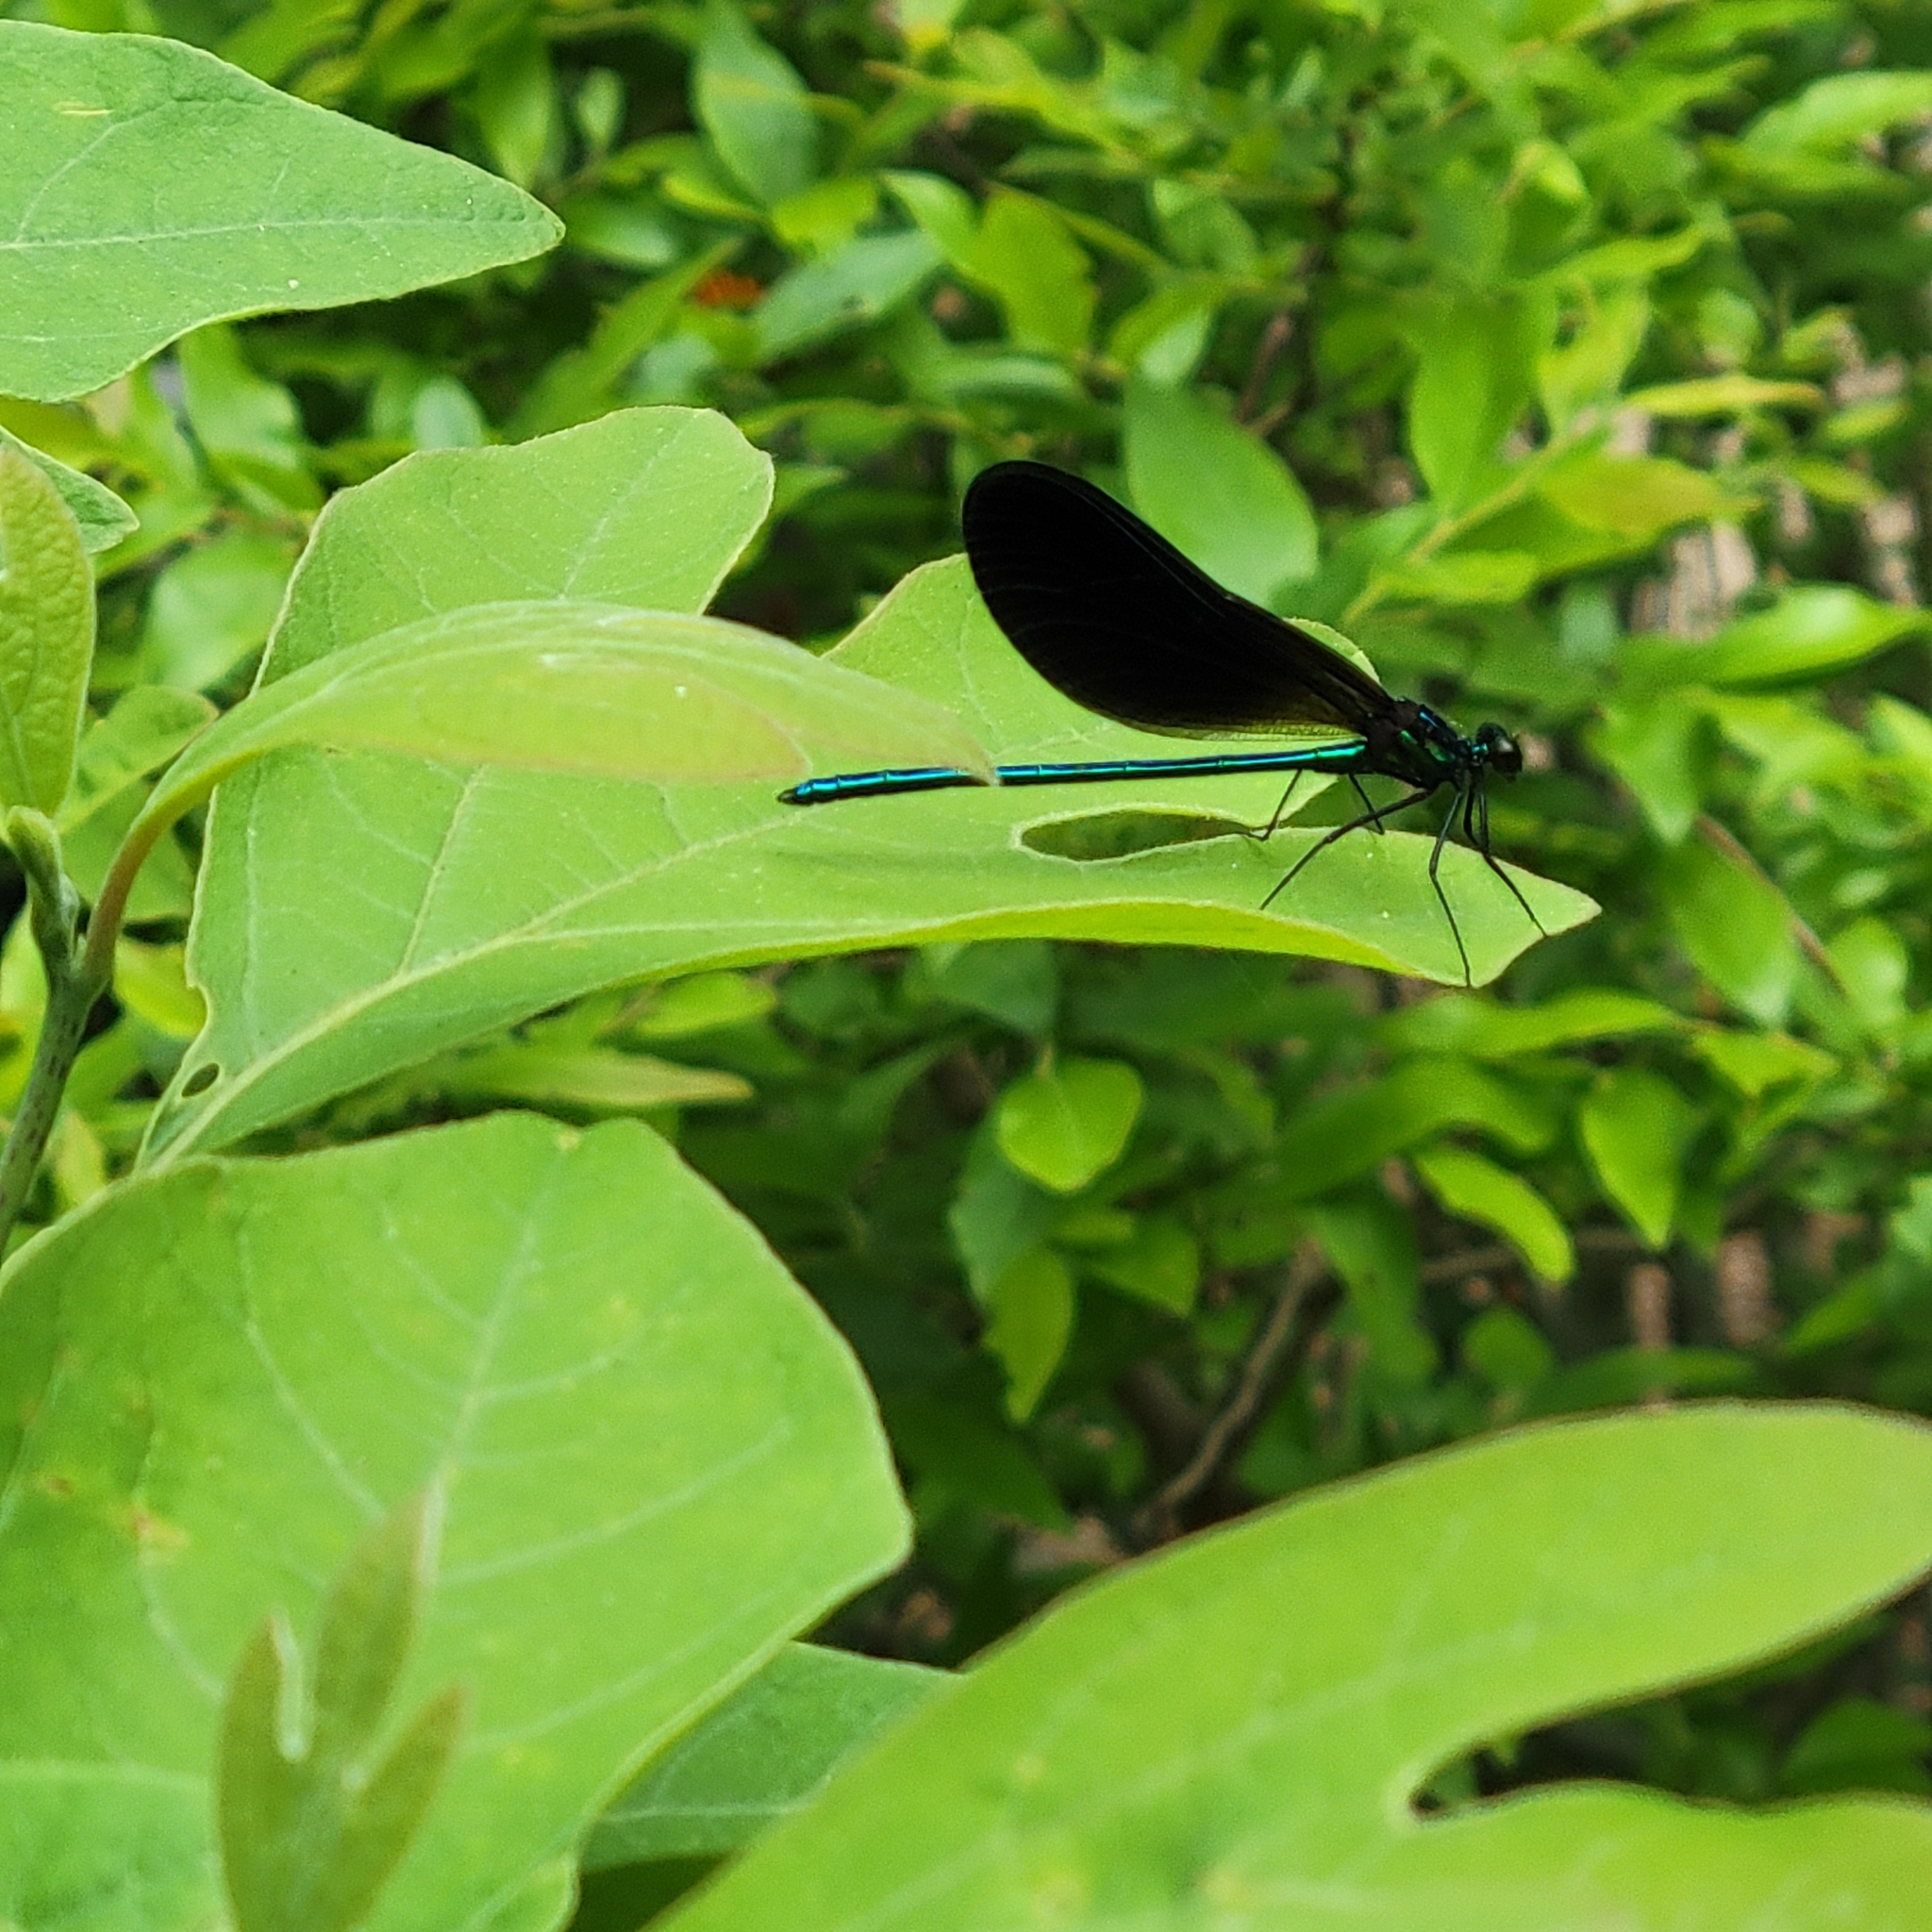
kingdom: Animalia
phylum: Arthropoda
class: Insecta
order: Odonata
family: Calopterygidae
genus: Calopteryx
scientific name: Calopteryx maculata
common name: Ebony jewelwing
